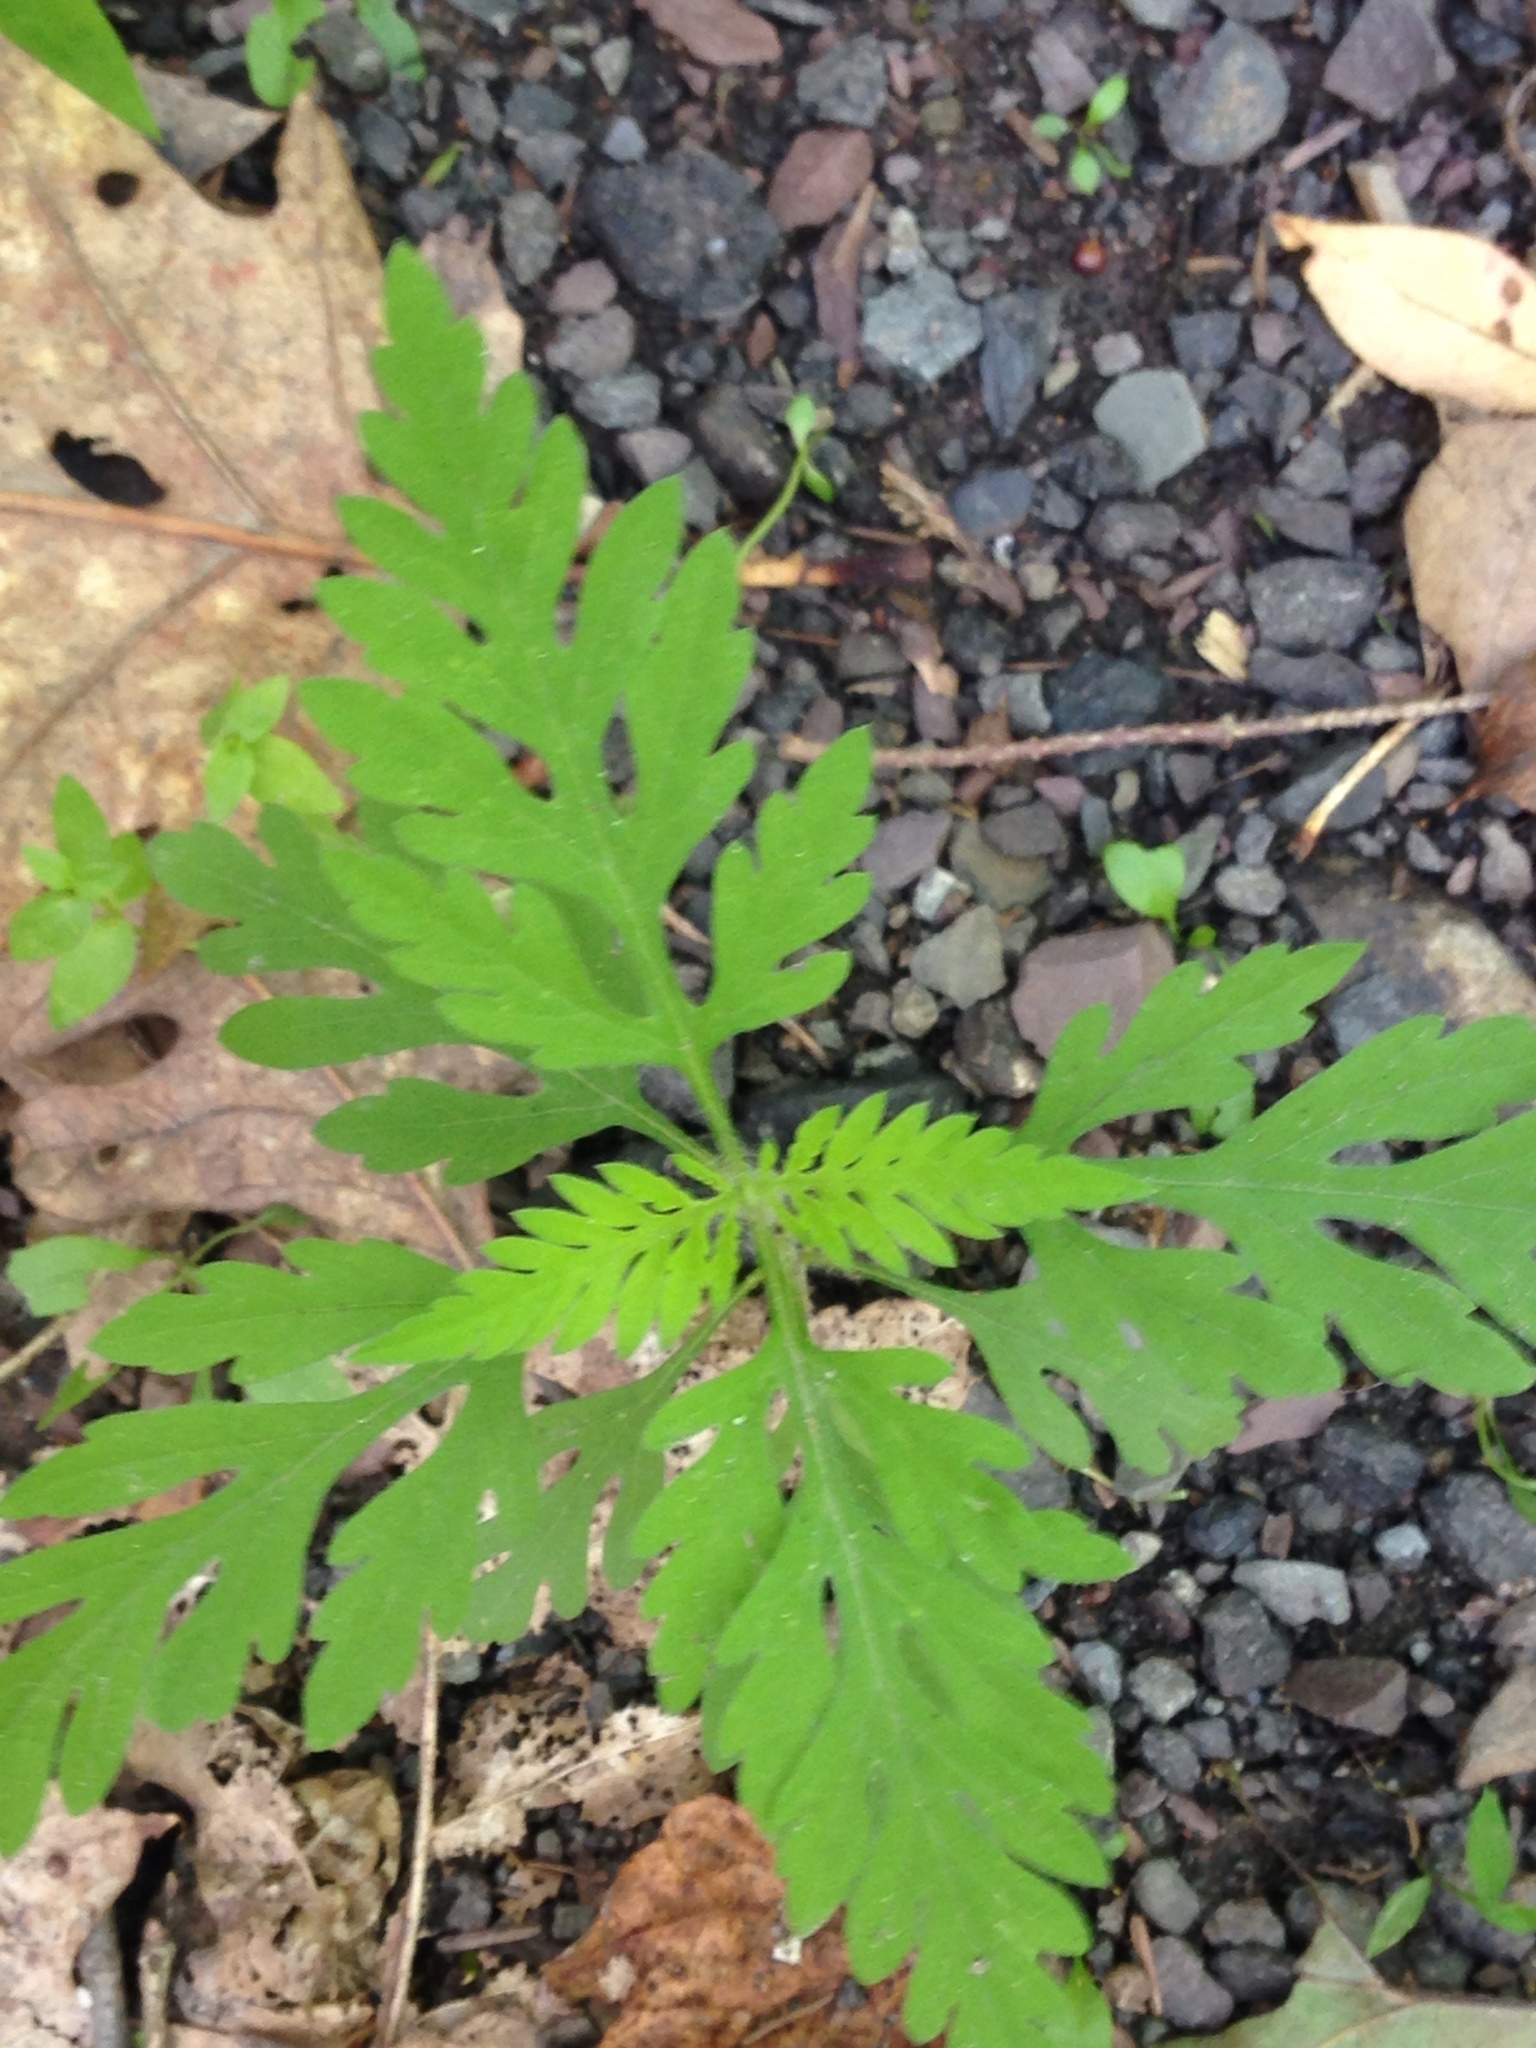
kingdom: Plantae
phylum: Tracheophyta
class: Magnoliopsida
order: Asterales
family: Asteraceae
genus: Ambrosia
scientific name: Ambrosia artemisiifolia
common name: Annual ragweed
